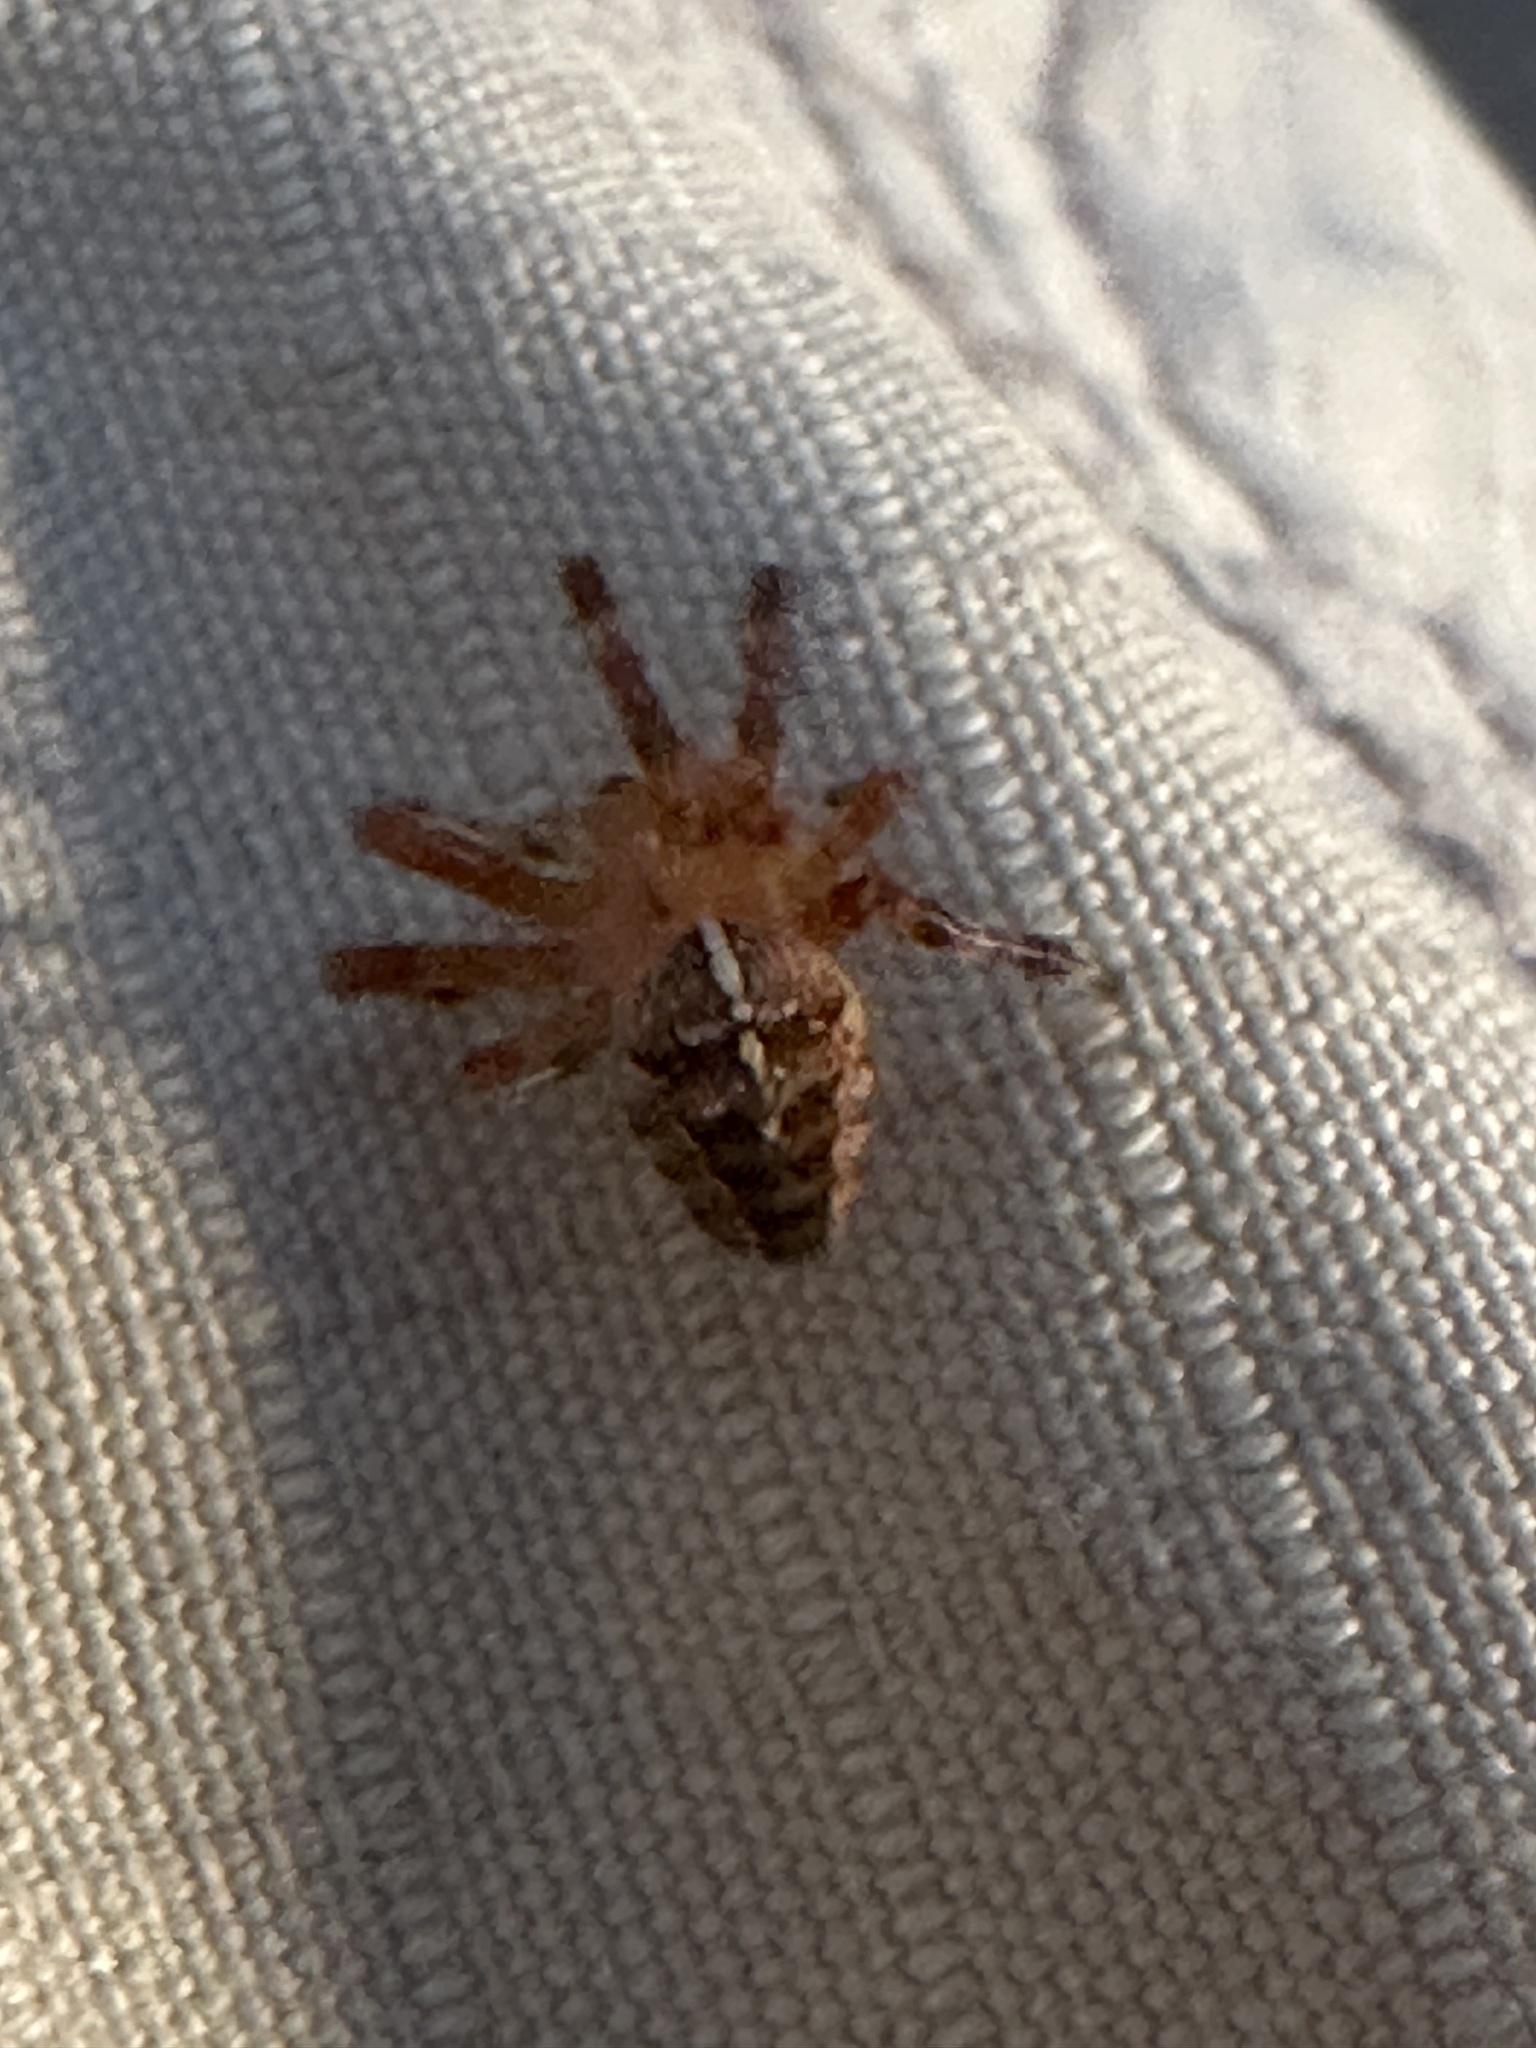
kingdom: Animalia
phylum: Arthropoda
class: Arachnida
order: Araneae
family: Araneidae
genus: Araneus
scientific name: Araneus diadematus
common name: Cross orbweaver
